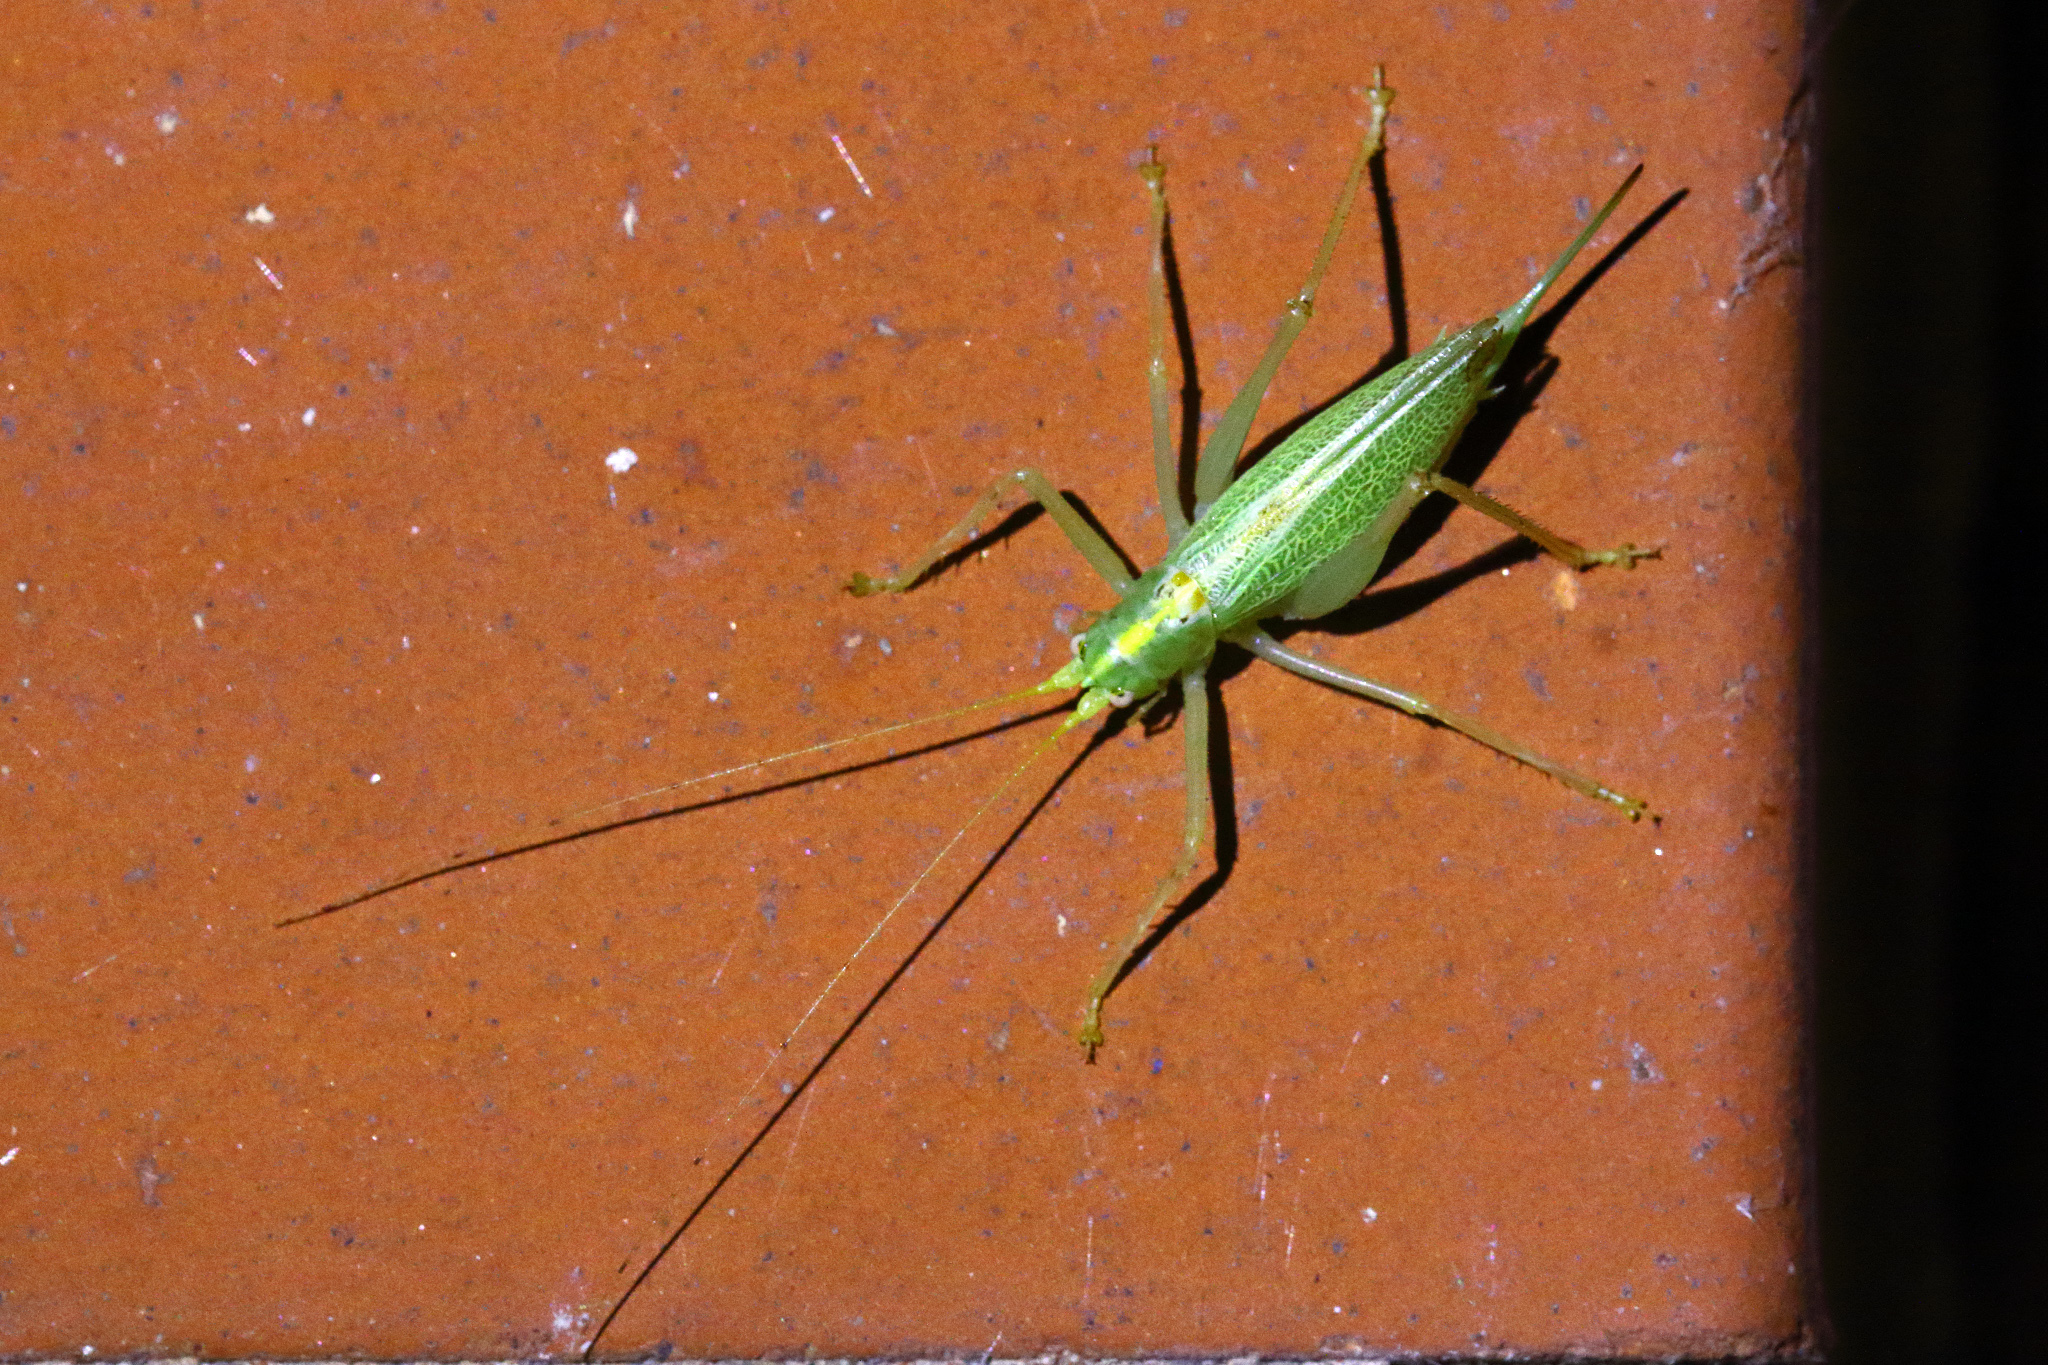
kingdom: Animalia
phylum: Arthropoda
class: Insecta
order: Orthoptera
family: Tettigoniidae
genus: Meconema
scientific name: Meconema thalassinum
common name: Oak bush-cricket
